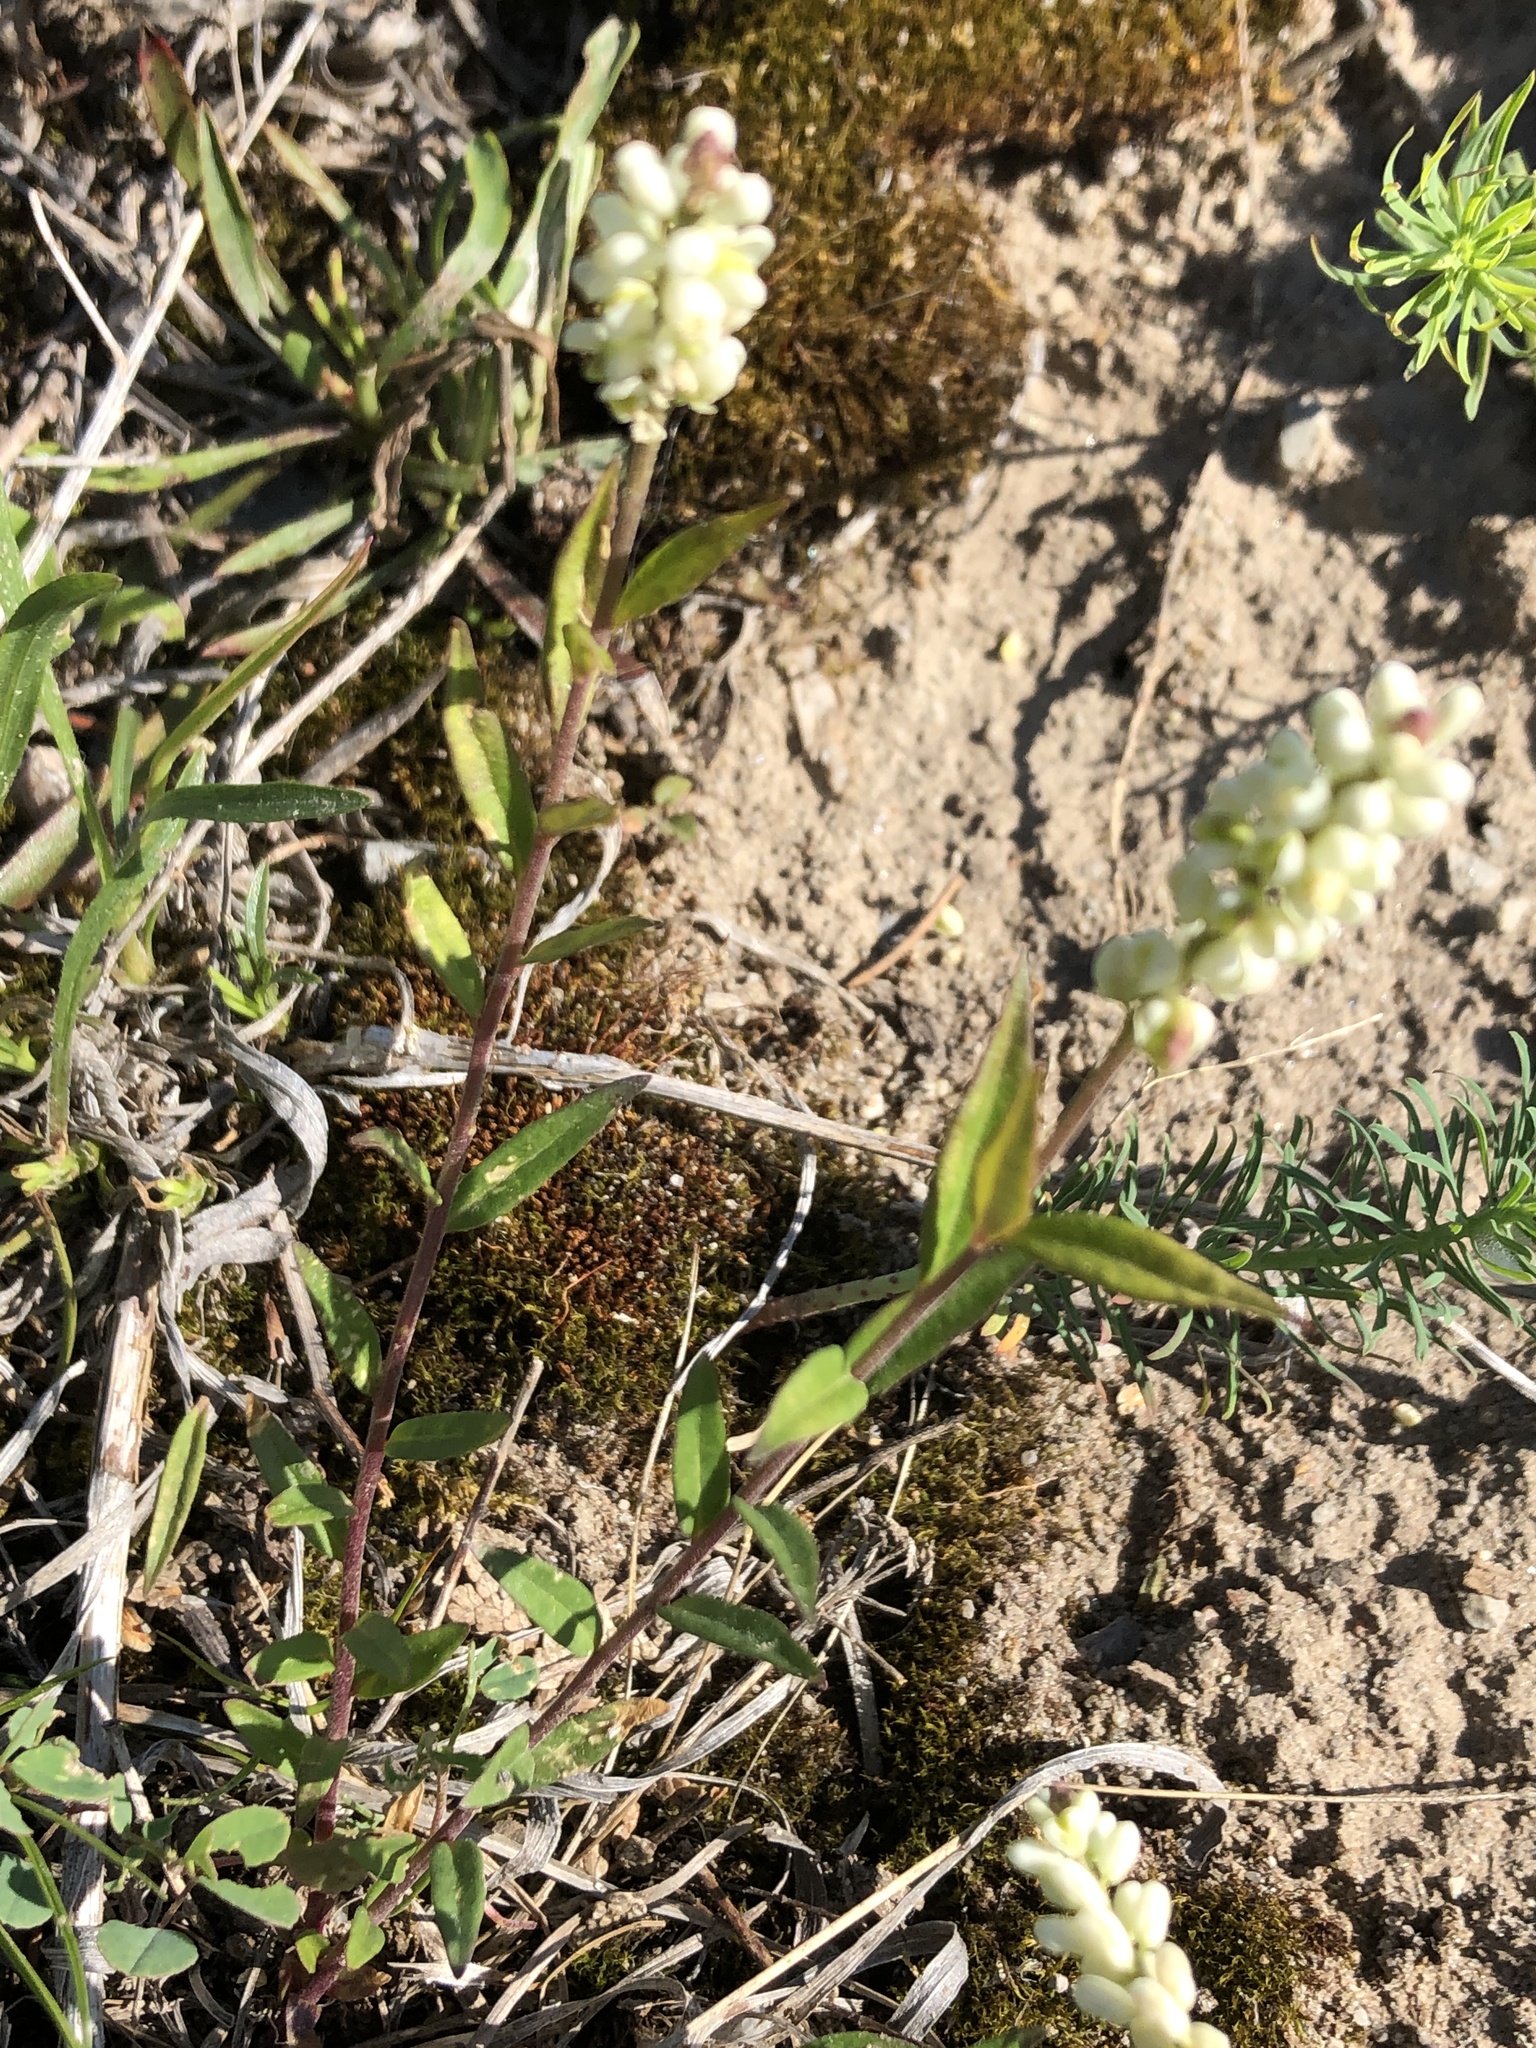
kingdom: Plantae
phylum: Tracheophyta
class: Magnoliopsida
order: Fabales
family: Polygalaceae
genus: Polygala
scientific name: Polygala senega
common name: Seneca snakeroot
